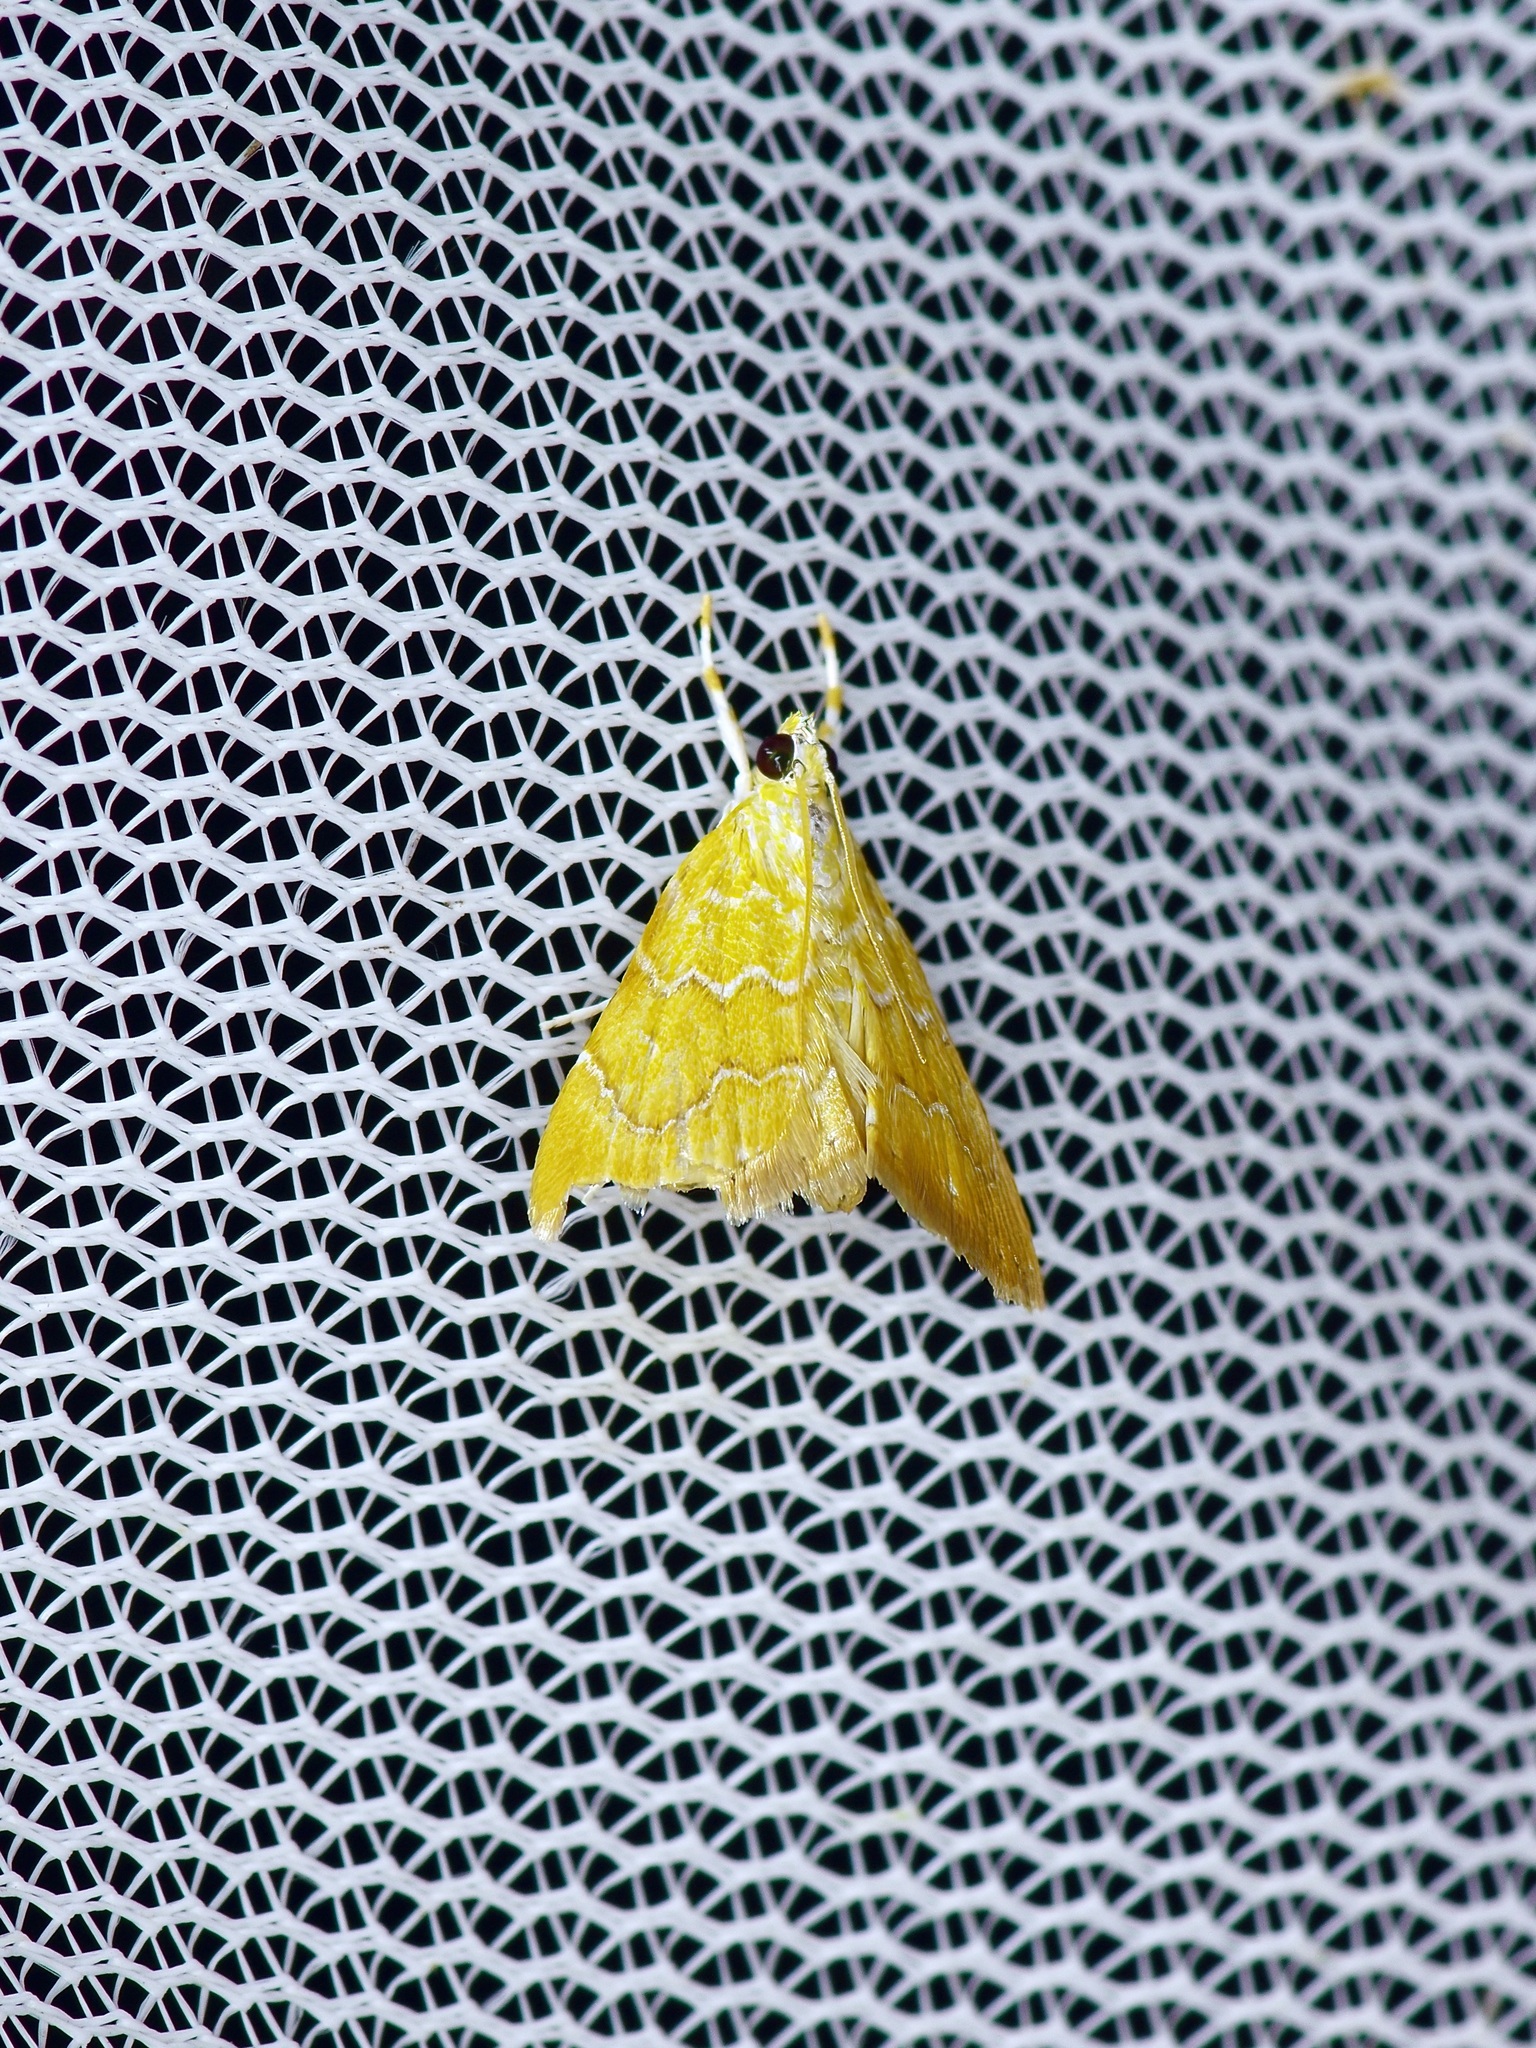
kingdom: Animalia
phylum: Arthropoda
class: Insecta
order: Lepidoptera
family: Crambidae
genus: Glaphyria
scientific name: Glaphyria sesquistrialis
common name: White-roped glaphyria
